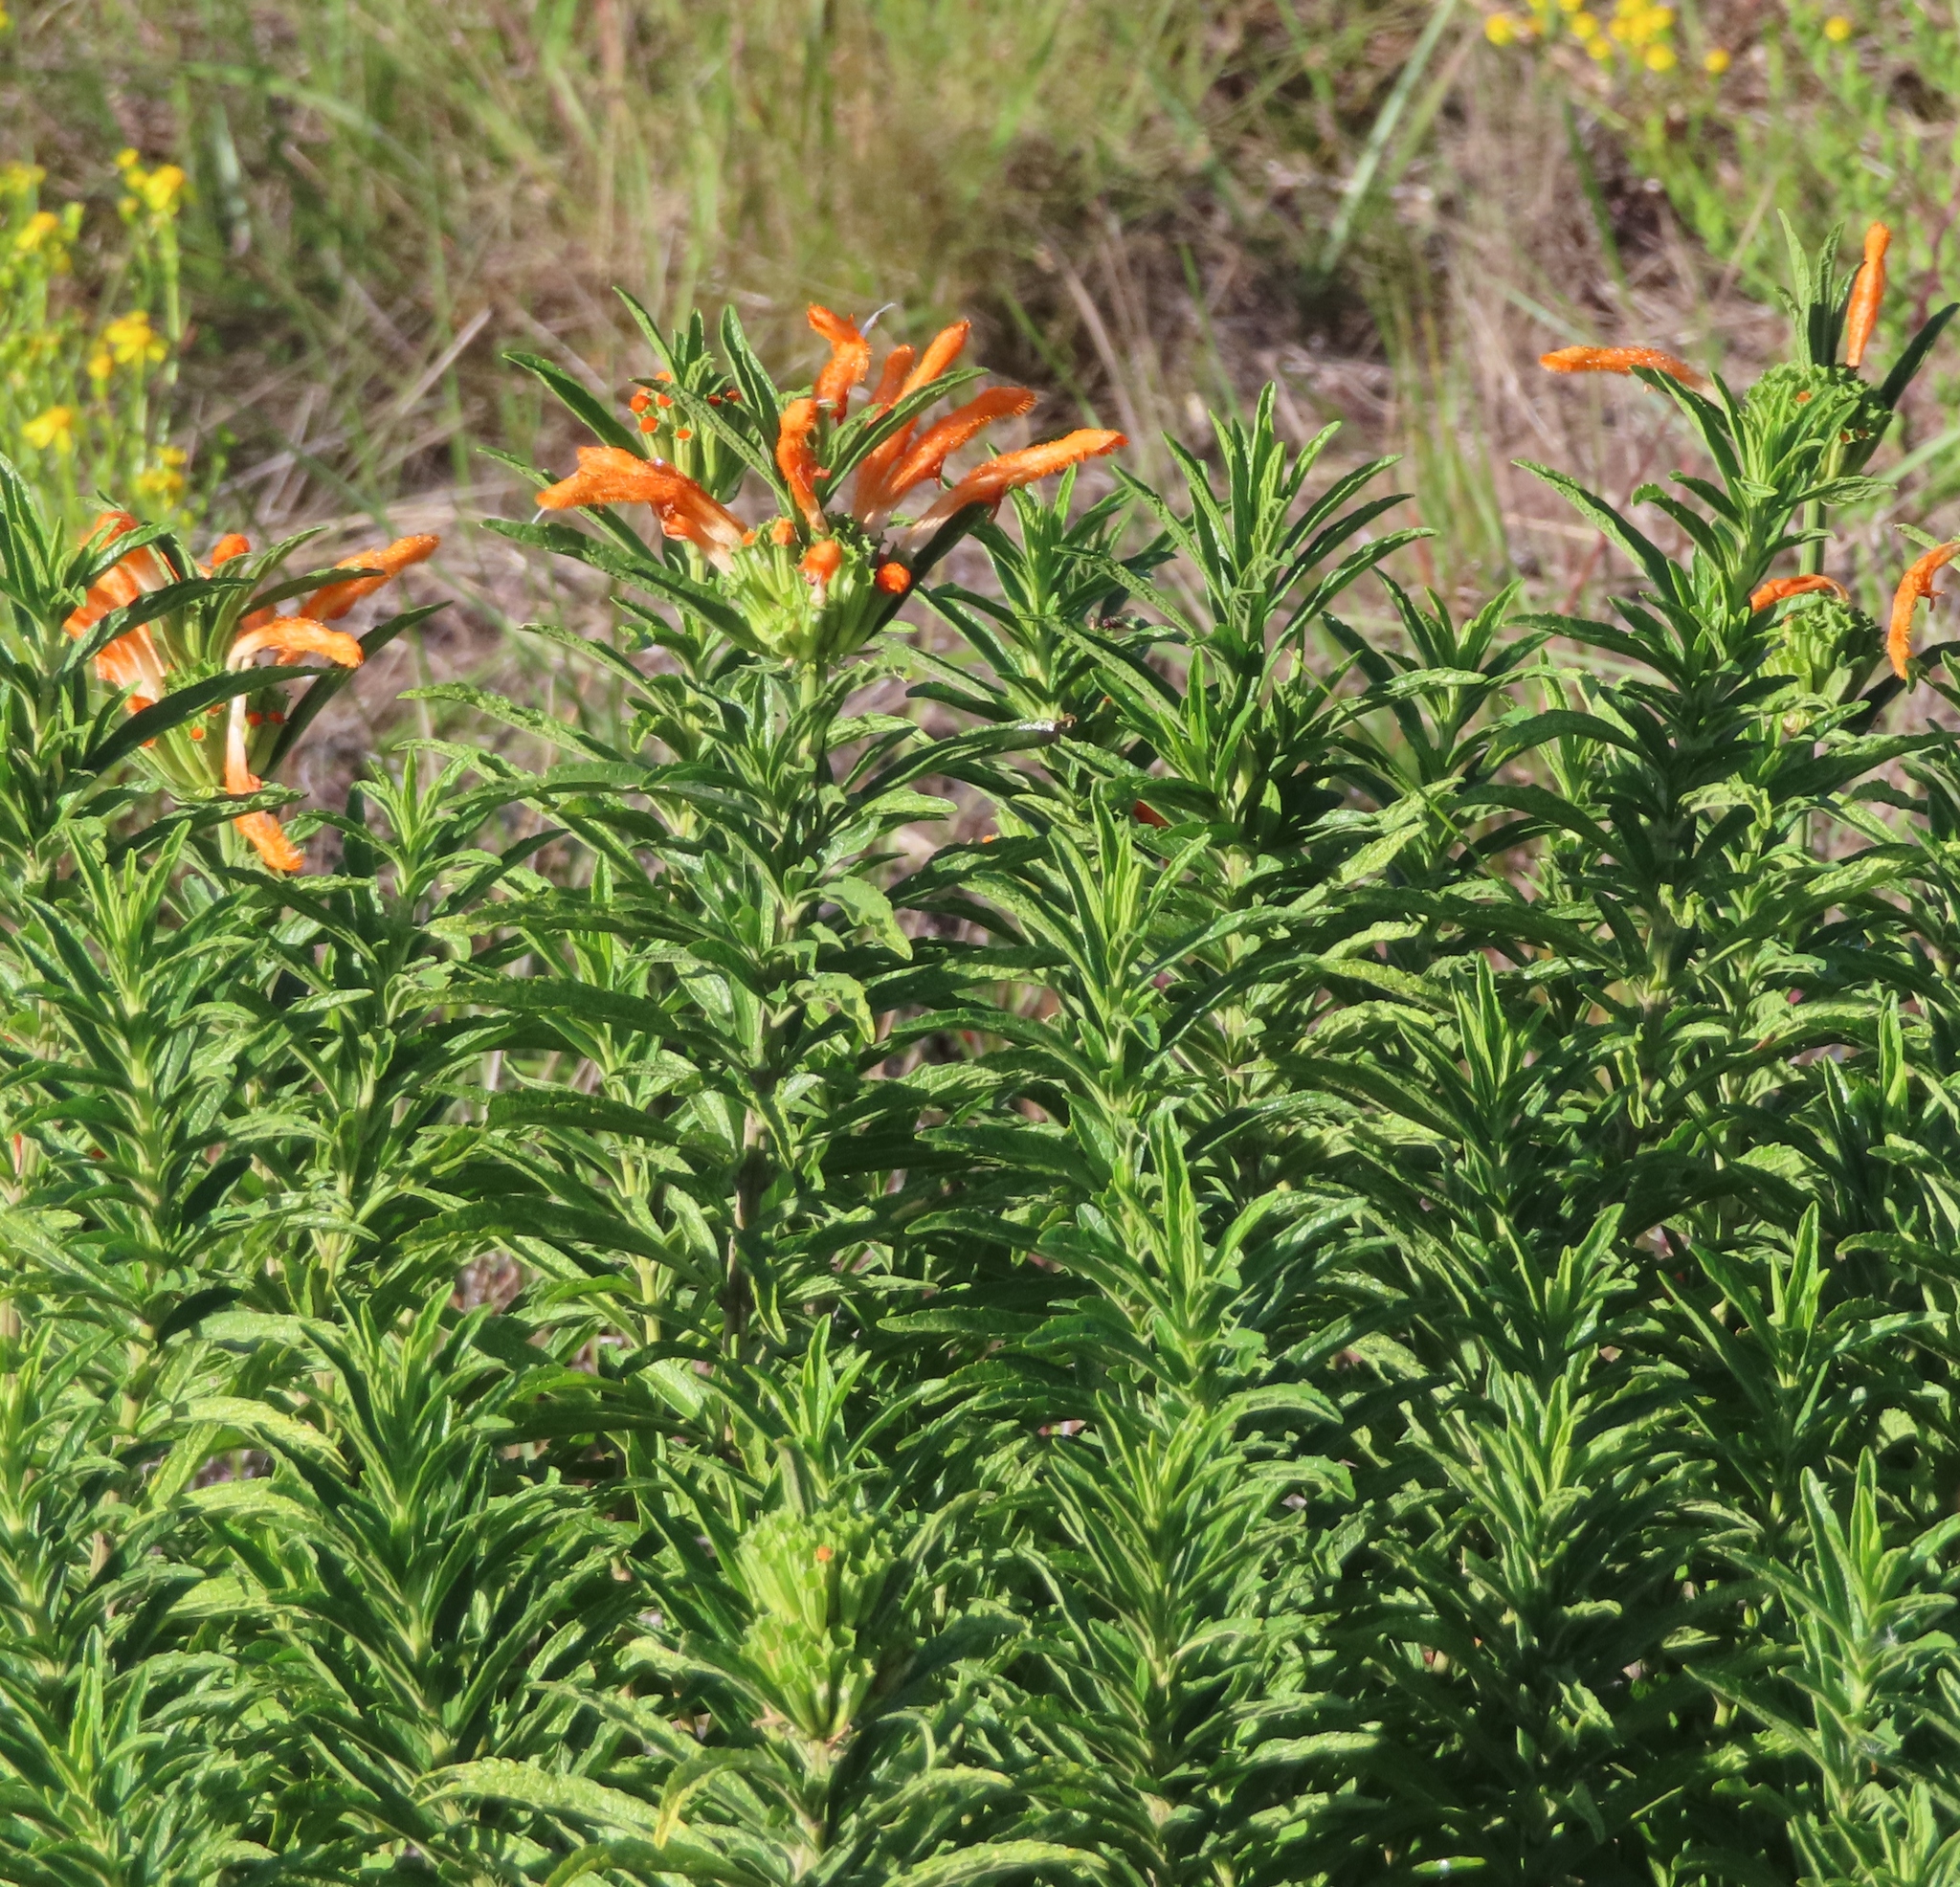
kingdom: Plantae
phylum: Tracheophyta
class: Magnoliopsida
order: Lamiales
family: Lamiaceae
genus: Leonotis
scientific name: Leonotis leonurus
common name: Lion's ear
